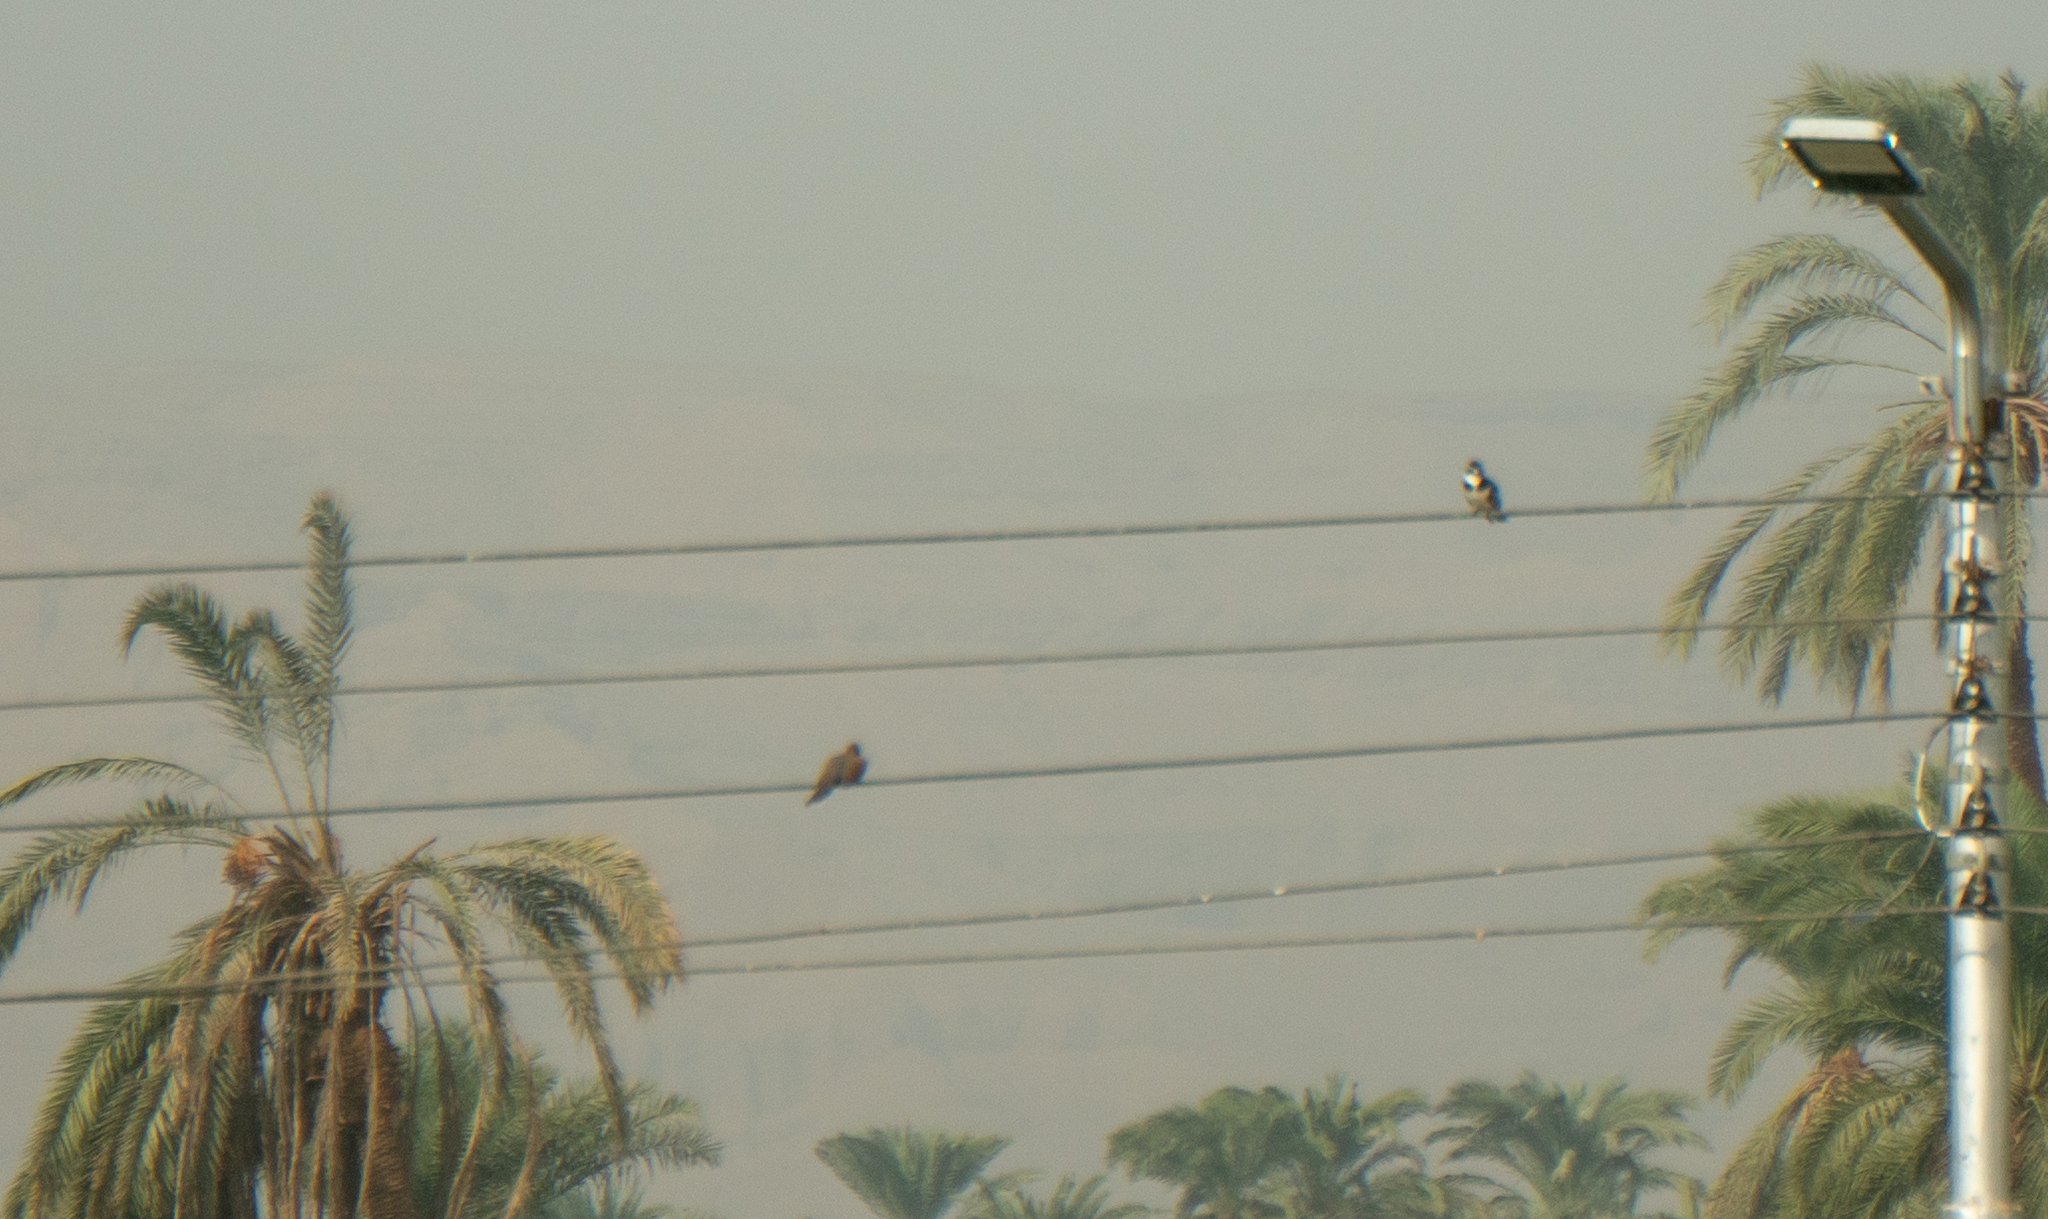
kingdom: Animalia
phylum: Chordata
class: Aves
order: Coraciiformes
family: Alcedinidae
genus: Ceryle
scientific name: Ceryle rudis
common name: Pied kingfisher
